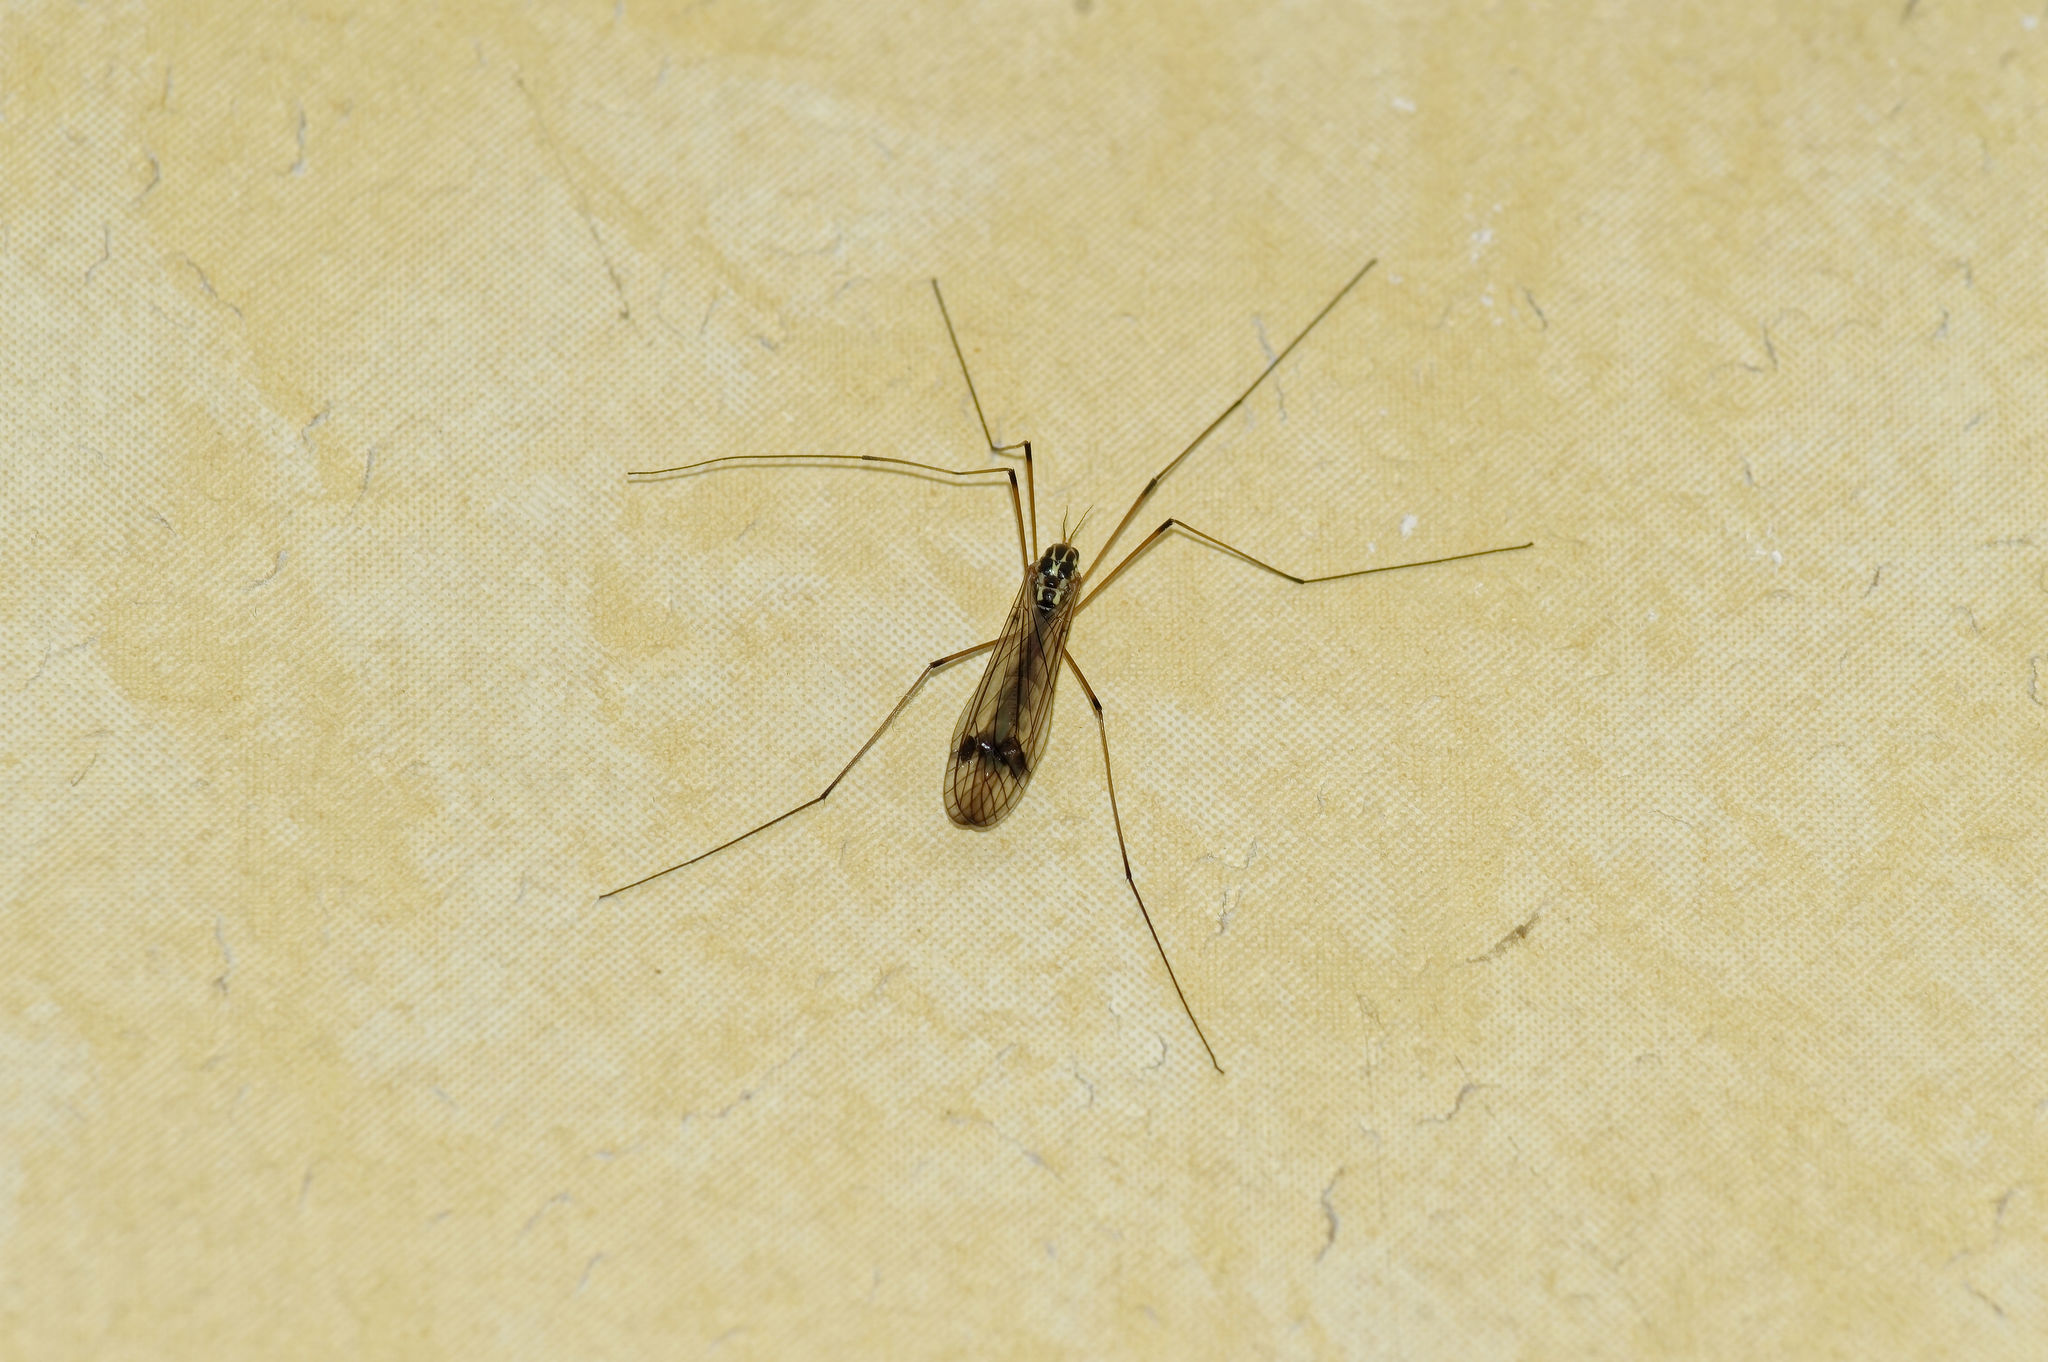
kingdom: Animalia
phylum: Arthropoda
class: Insecta
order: Diptera
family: Tipulidae
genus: Nephrotoma
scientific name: Nephrotoma quadrifaria
